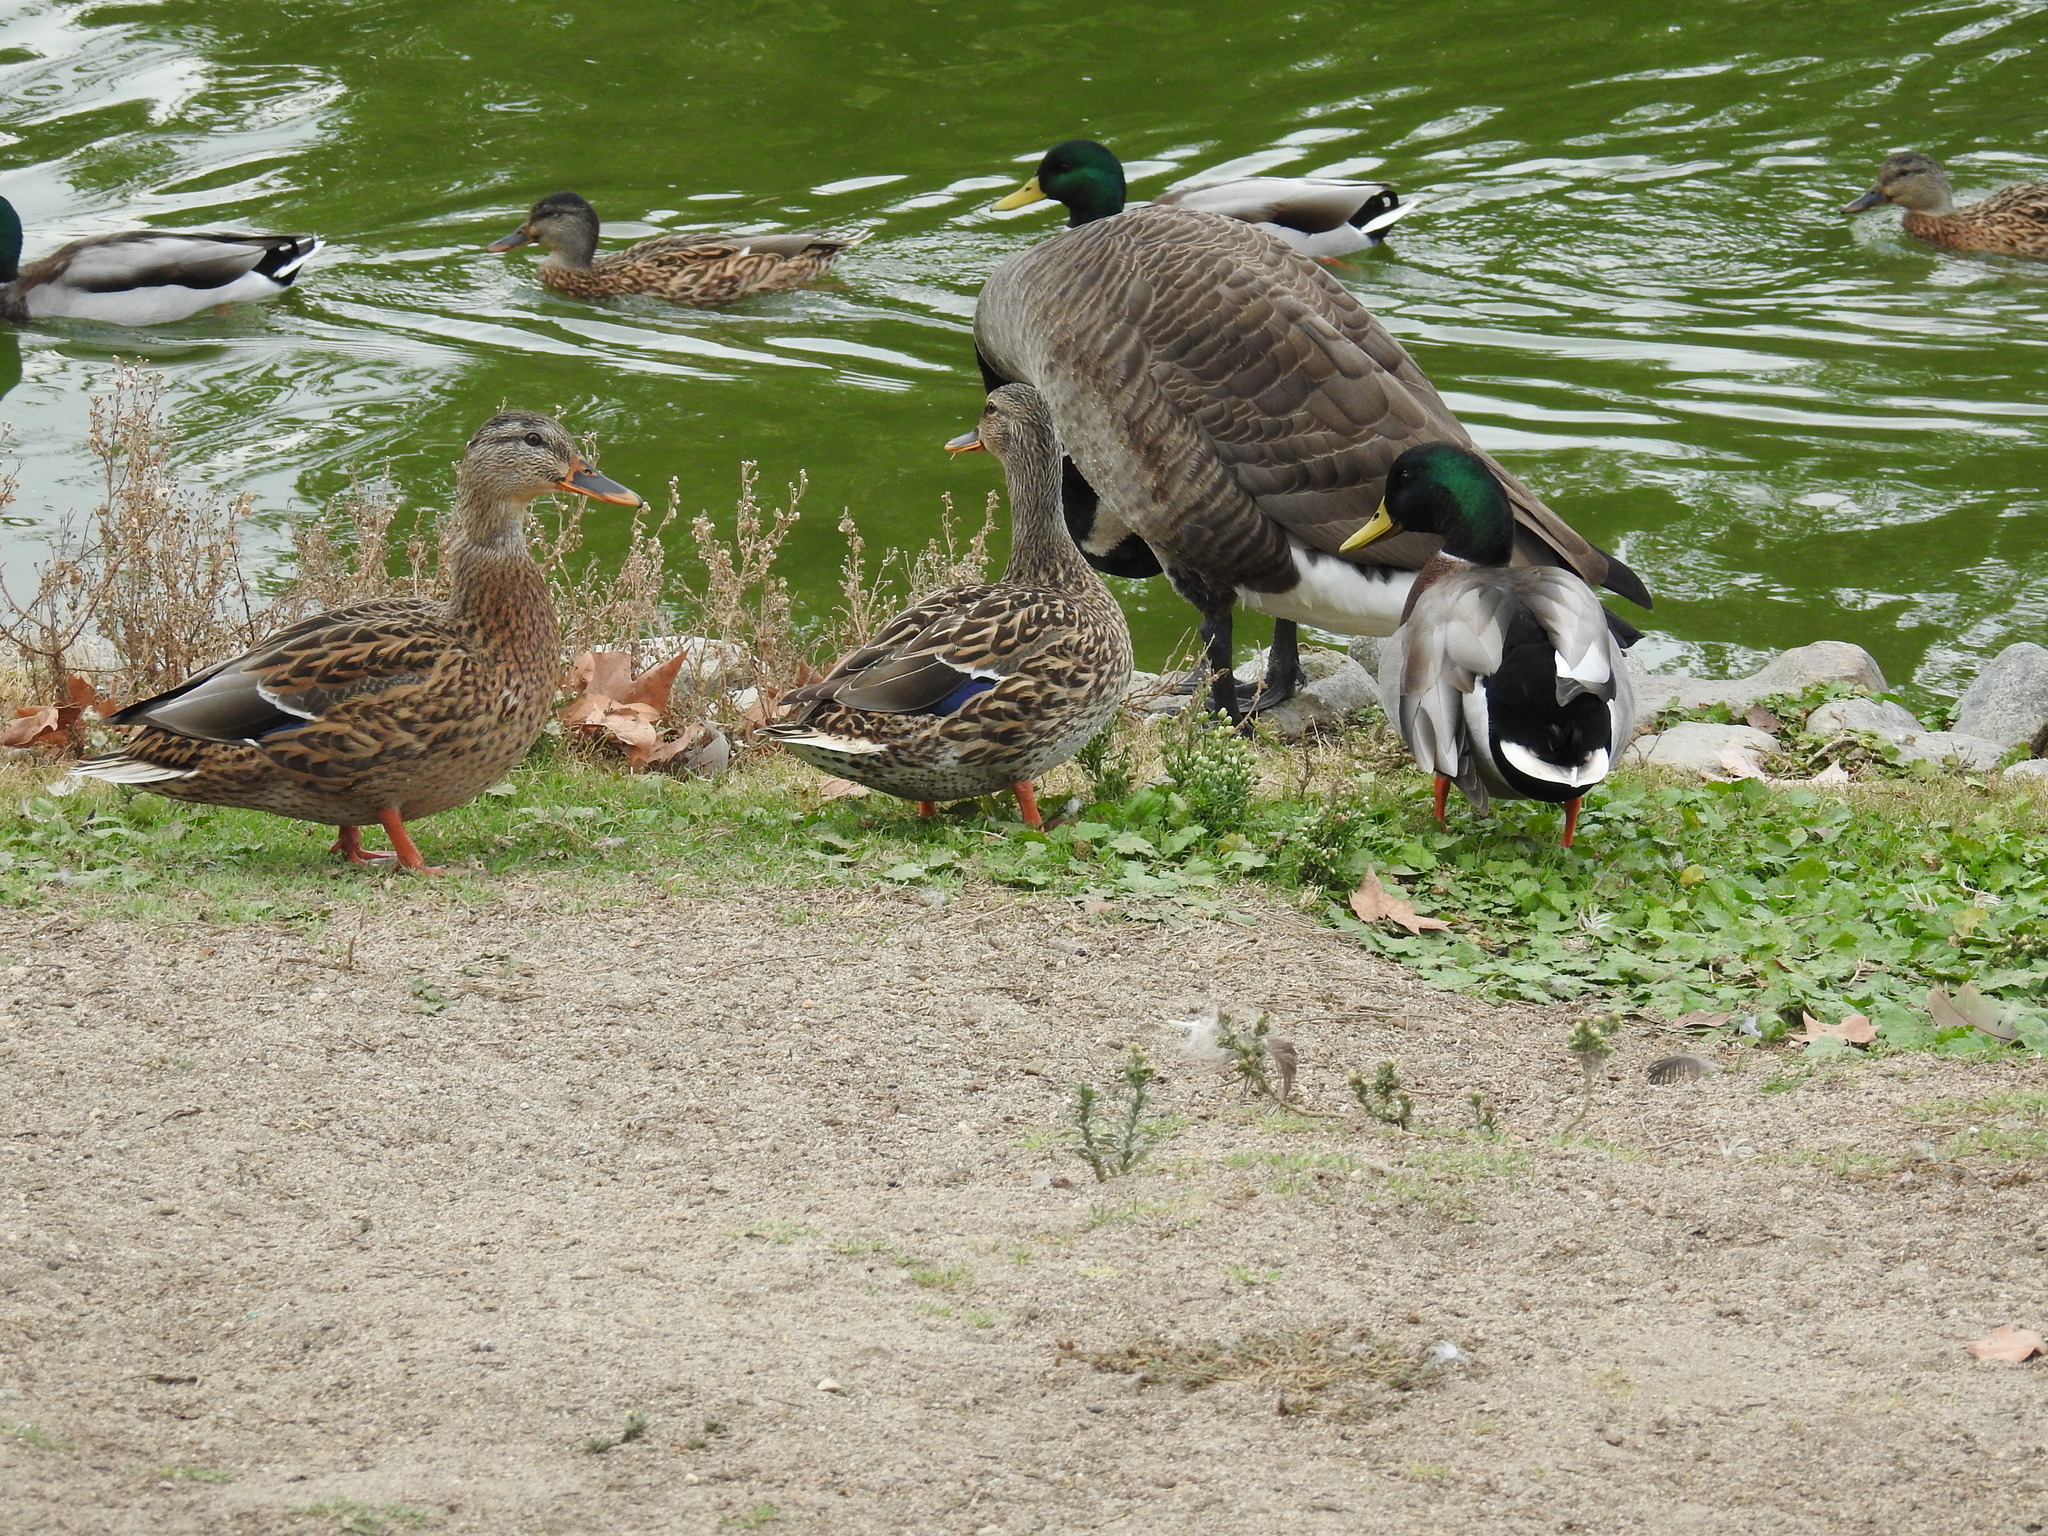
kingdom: Animalia
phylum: Chordata
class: Aves
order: Anseriformes
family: Anatidae
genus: Anas
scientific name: Anas platyrhynchos
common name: Mallard
